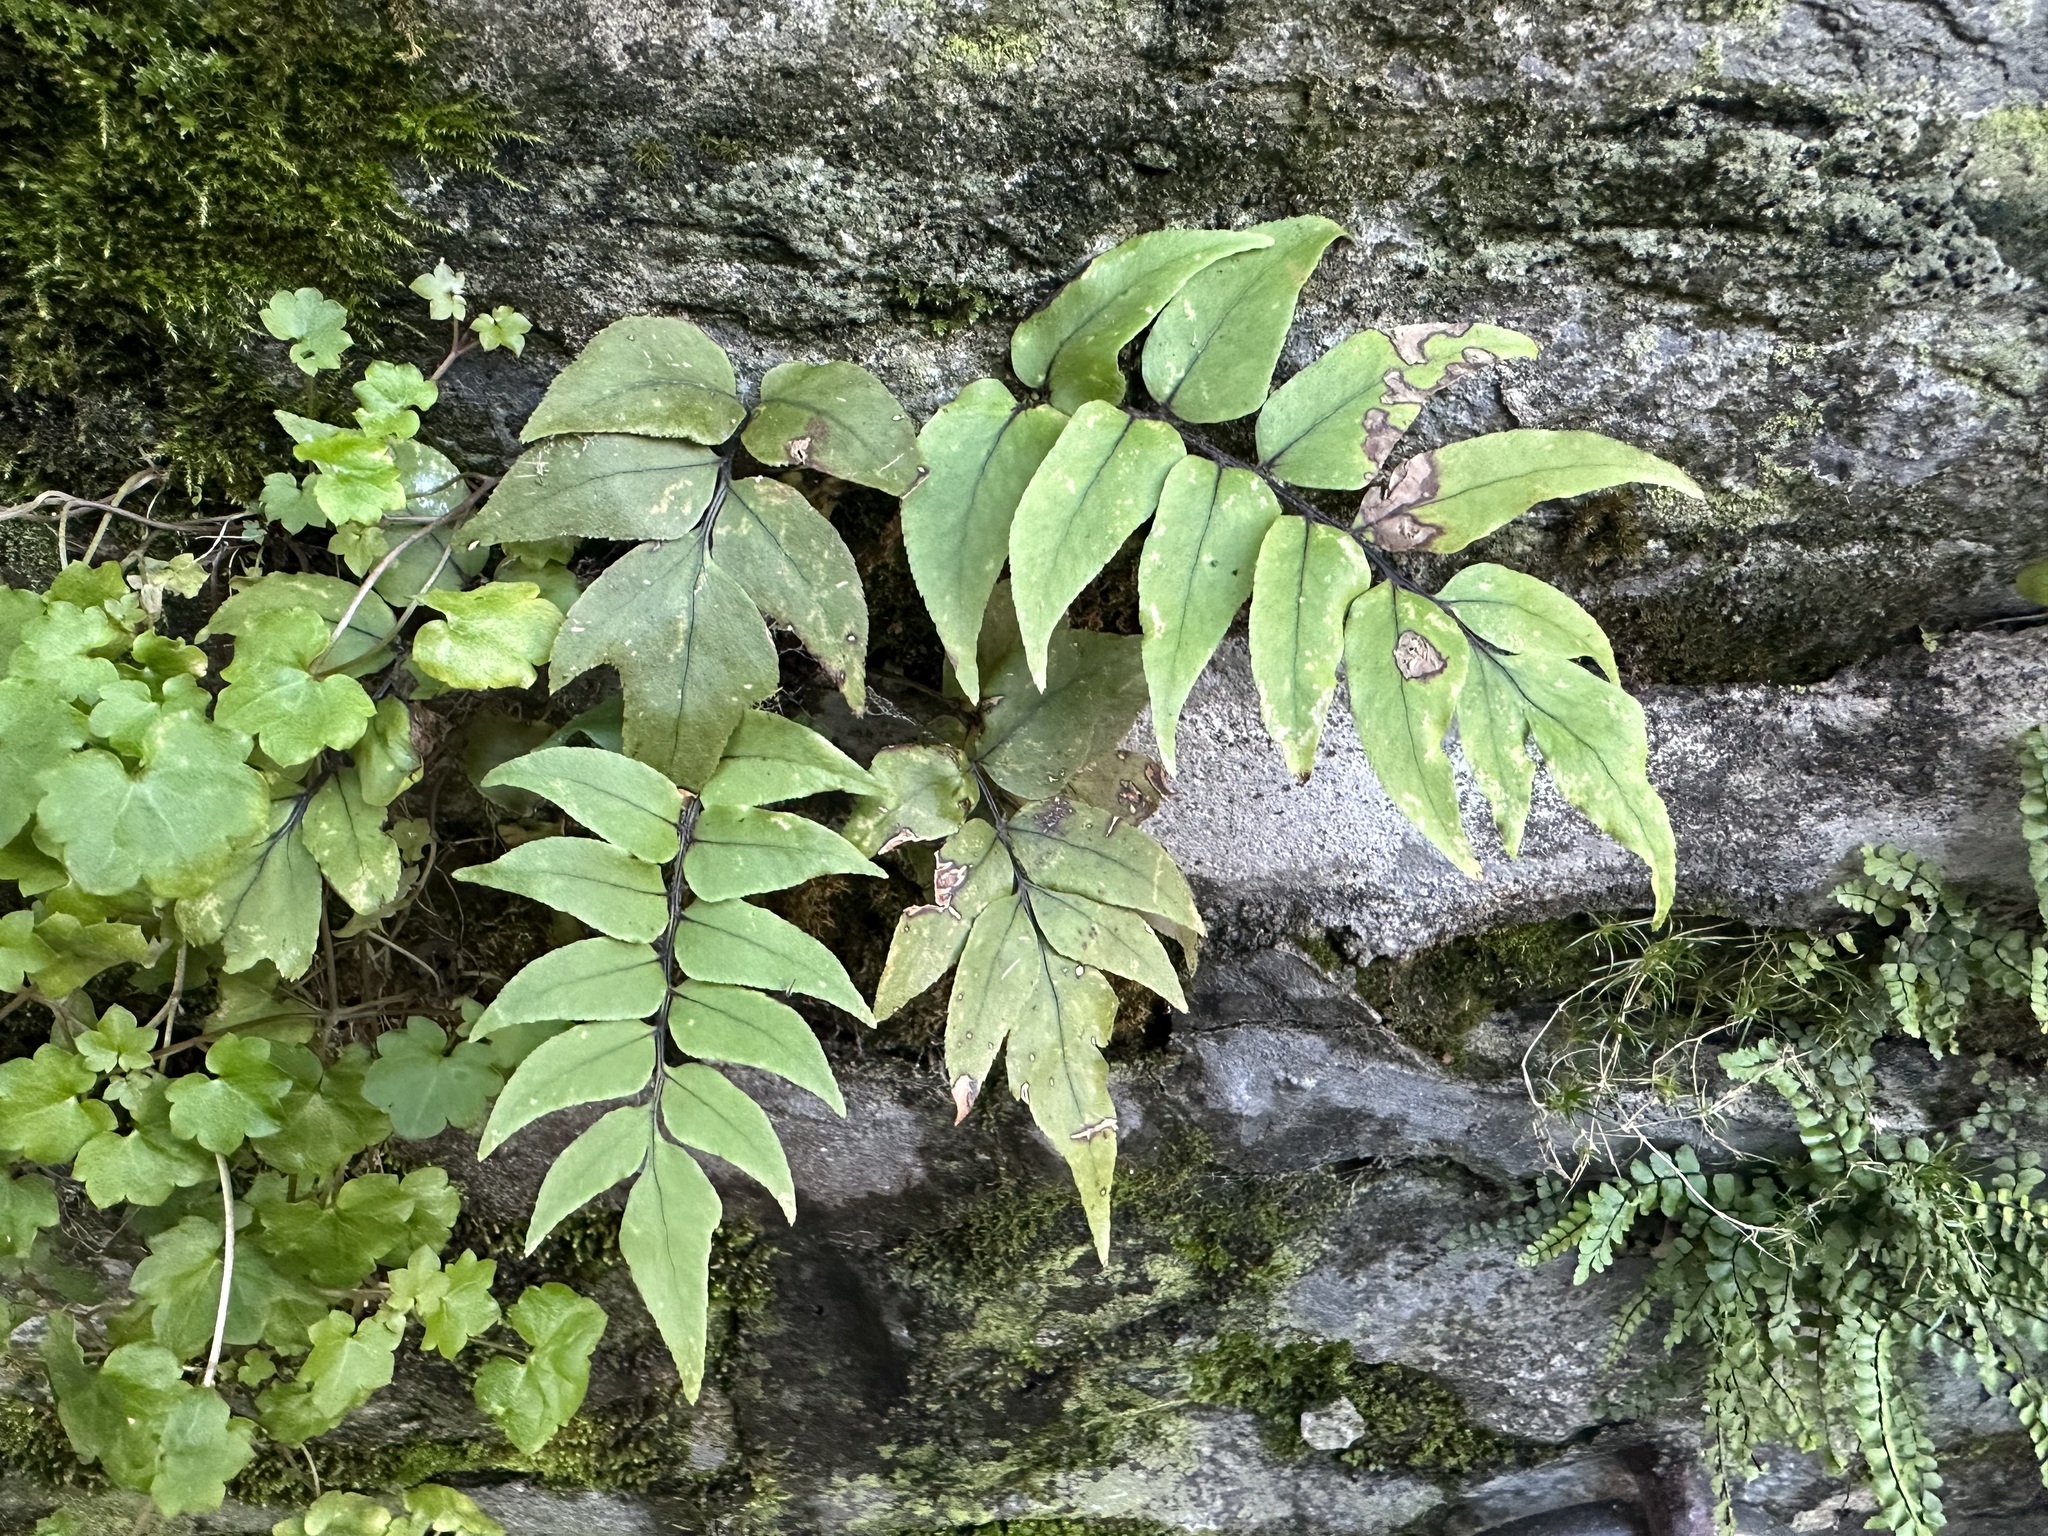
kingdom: Plantae
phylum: Tracheophyta
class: Polypodiopsida
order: Polypodiales
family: Dryopteridaceae
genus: Cyrtomium
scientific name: Cyrtomium fortunei
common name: Asian netvein hollyfern
